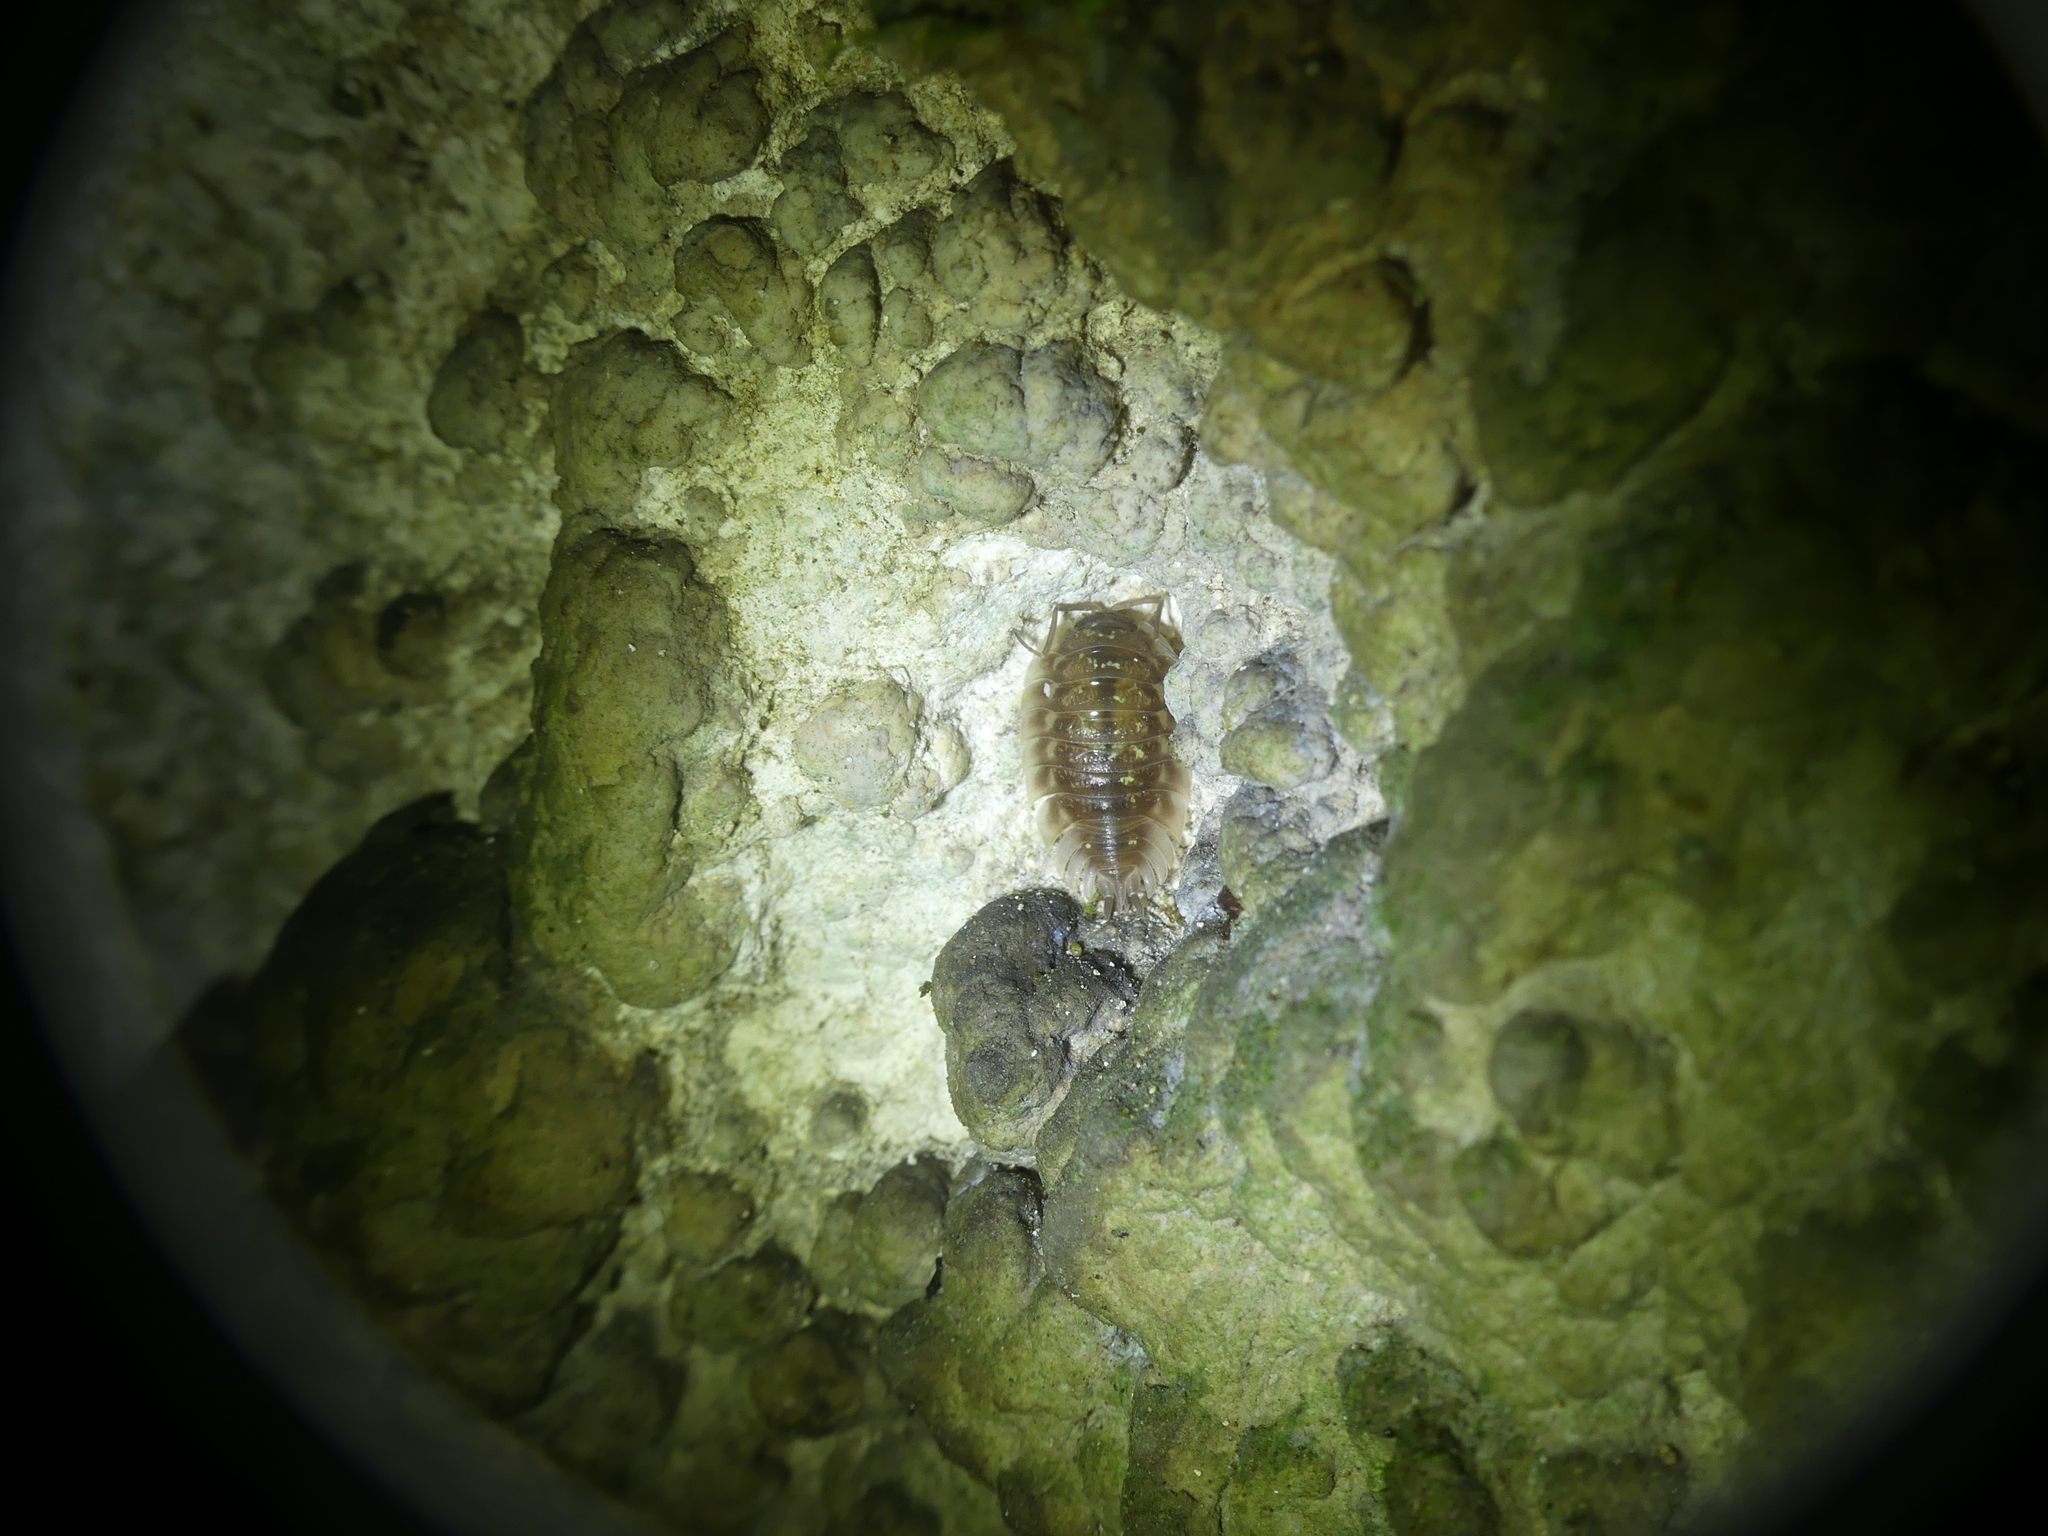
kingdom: Animalia
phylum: Arthropoda
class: Malacostraca
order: Isopoda
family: Oniscidae
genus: Oniscus
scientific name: Oniscus asellus
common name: Common shiny woodlouse
